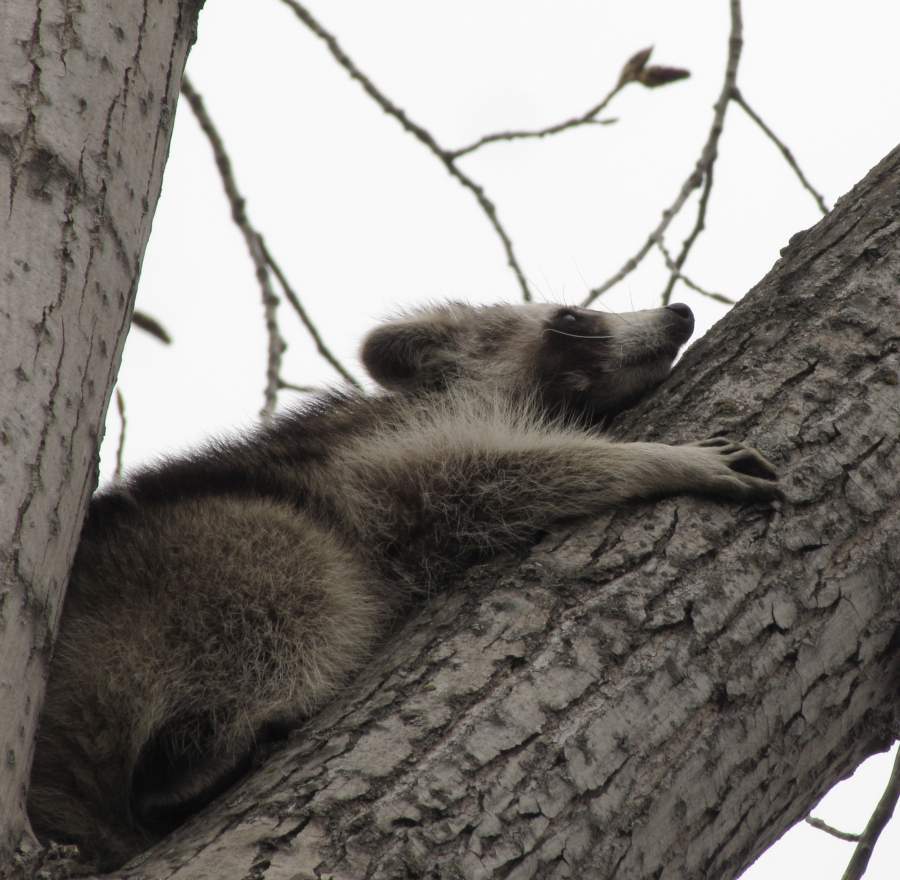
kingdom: Animalia
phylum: Chordata
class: Mammalia
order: Carnivora
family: Procyonidae
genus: Procyon
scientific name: Procyon lotor
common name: Raccoon
